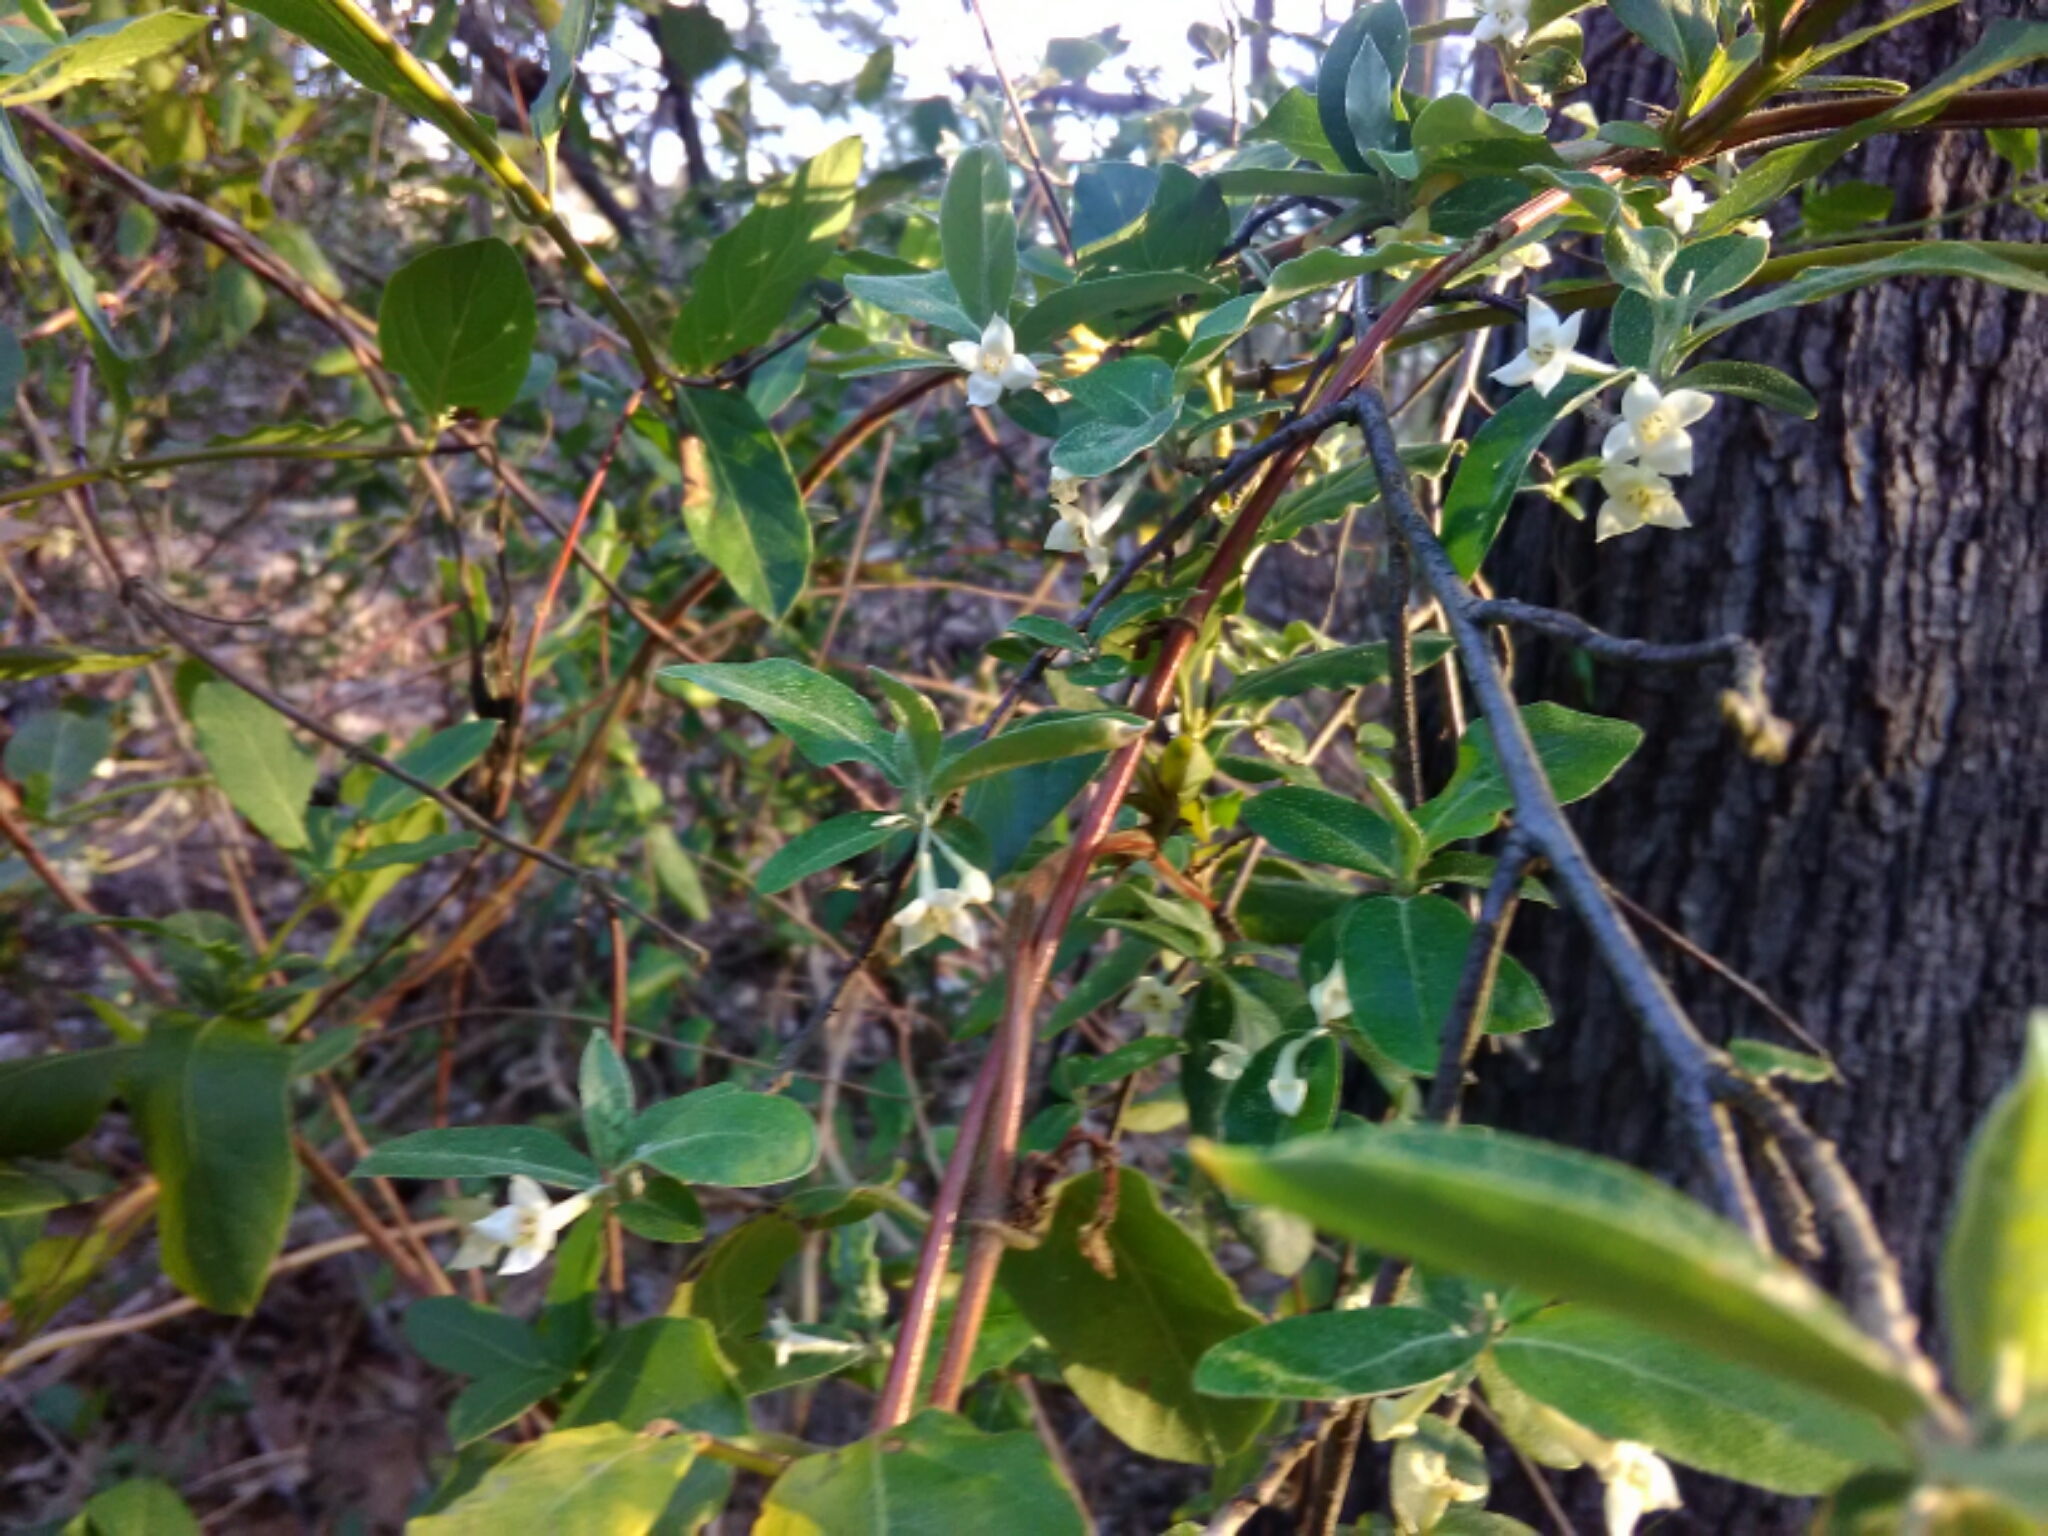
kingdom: Plantae
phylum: Tracheophyta
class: Magnoliopsida
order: Rosales
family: Elaeagnaceae
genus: Elaeagnus
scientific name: Elaeagnus umbellata
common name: Autumn olive
